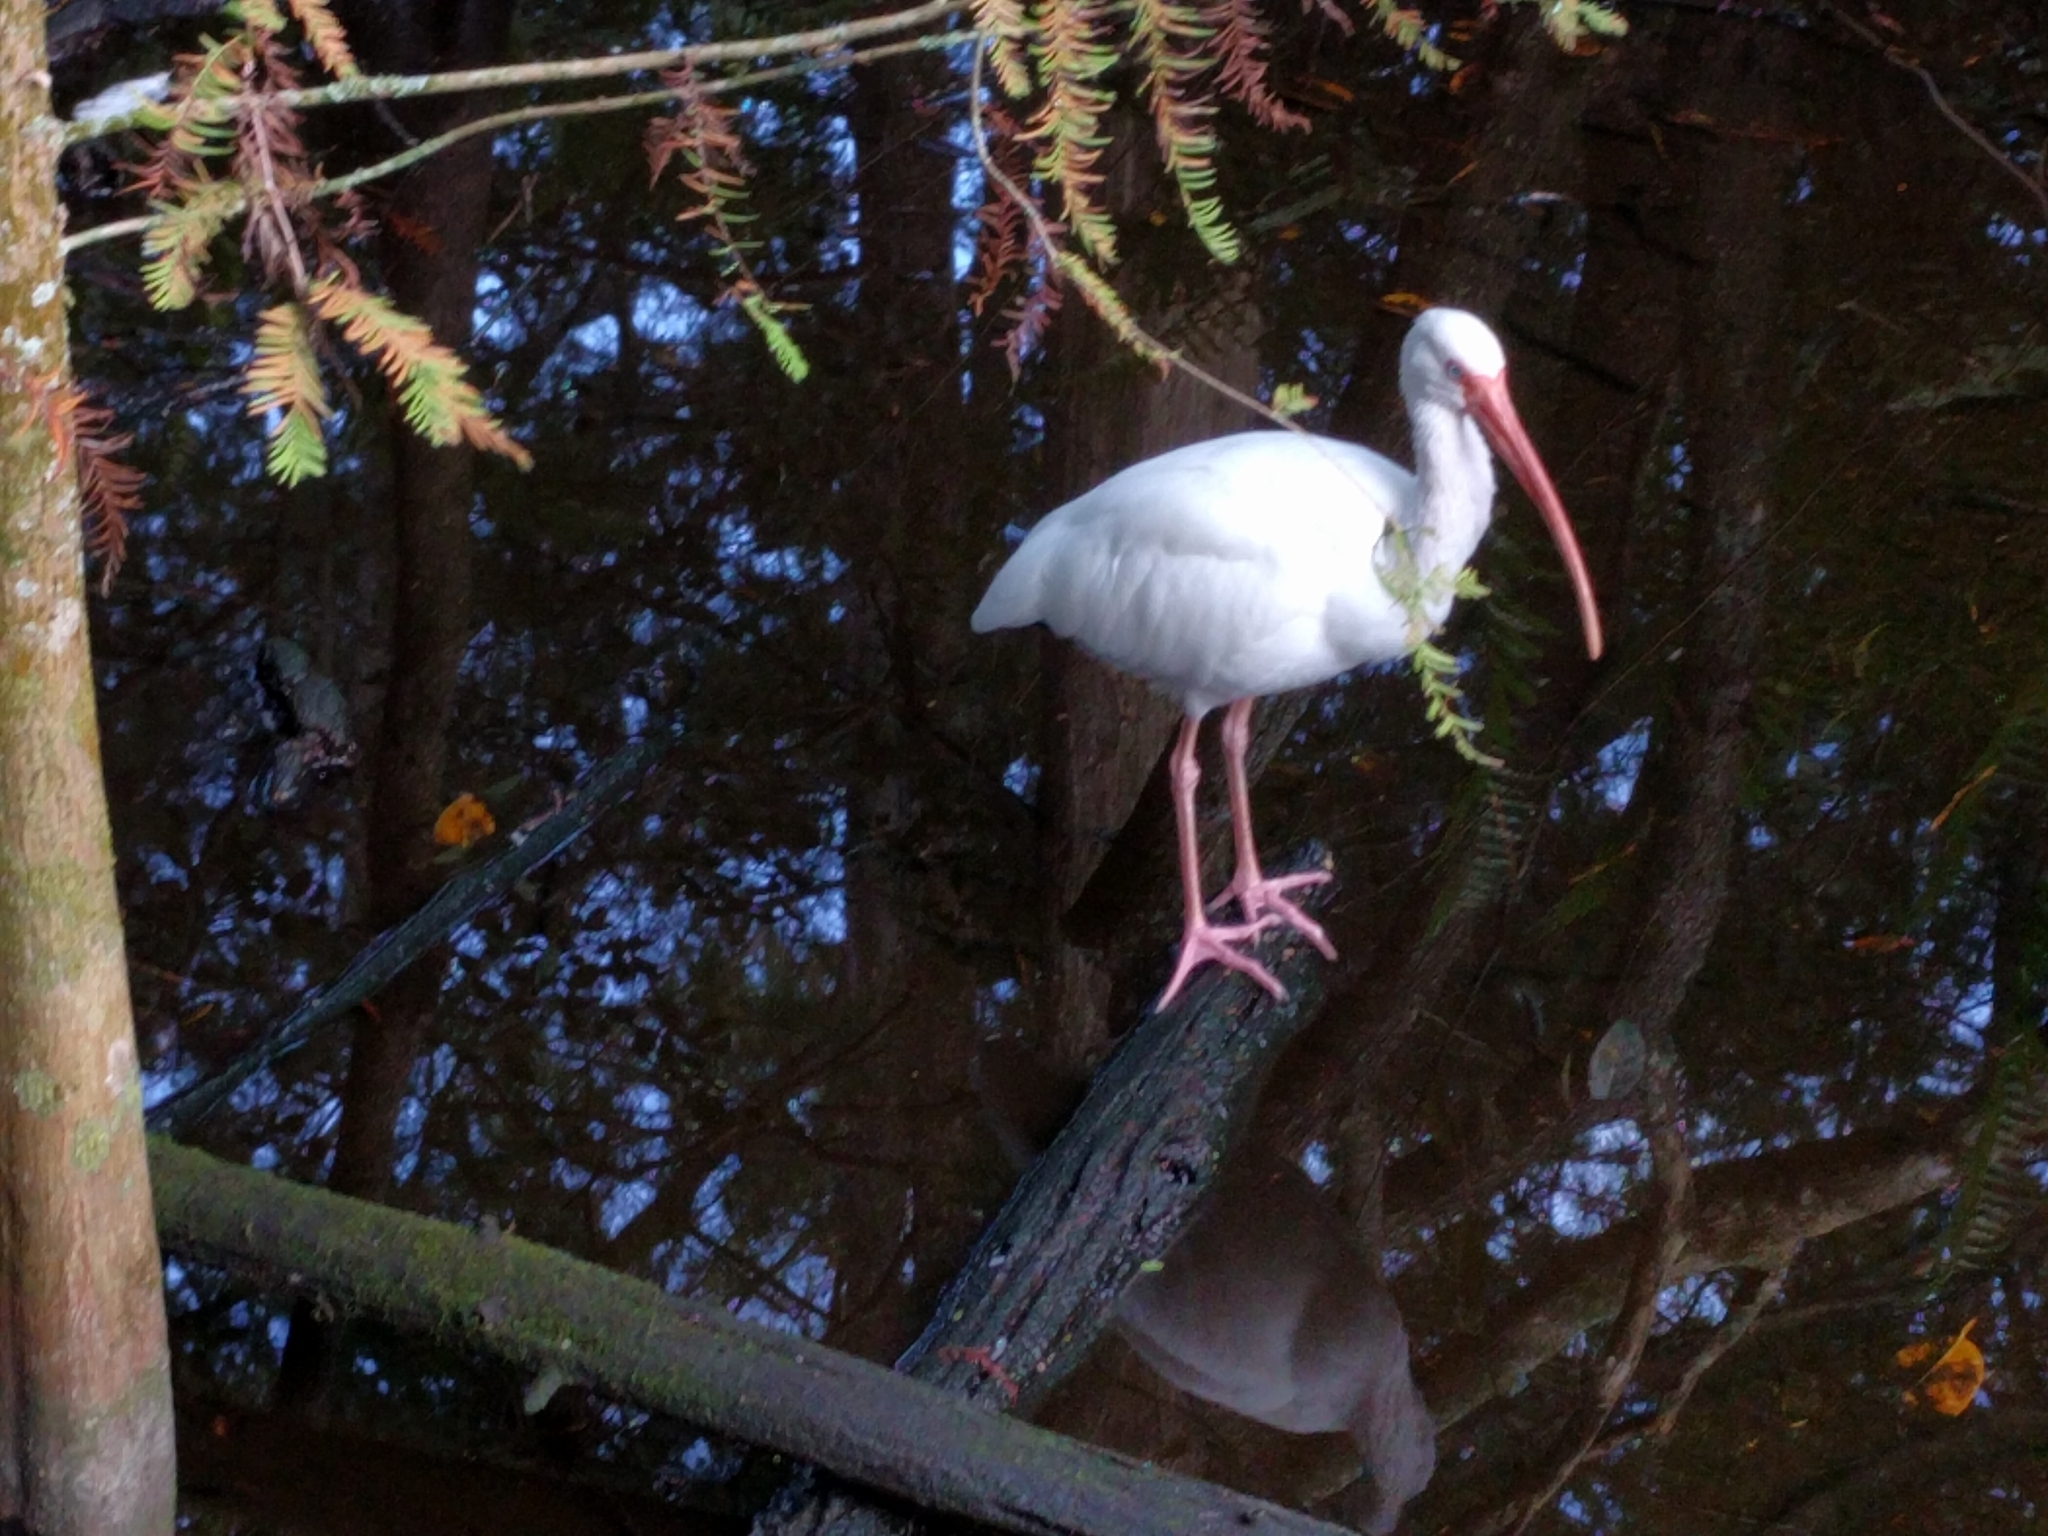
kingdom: Animalia
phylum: Chordata
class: Aves
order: Pelecaniformes
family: Threskiornithidae
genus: Eudocimus
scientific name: Eudocimus albus
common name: White ibis
